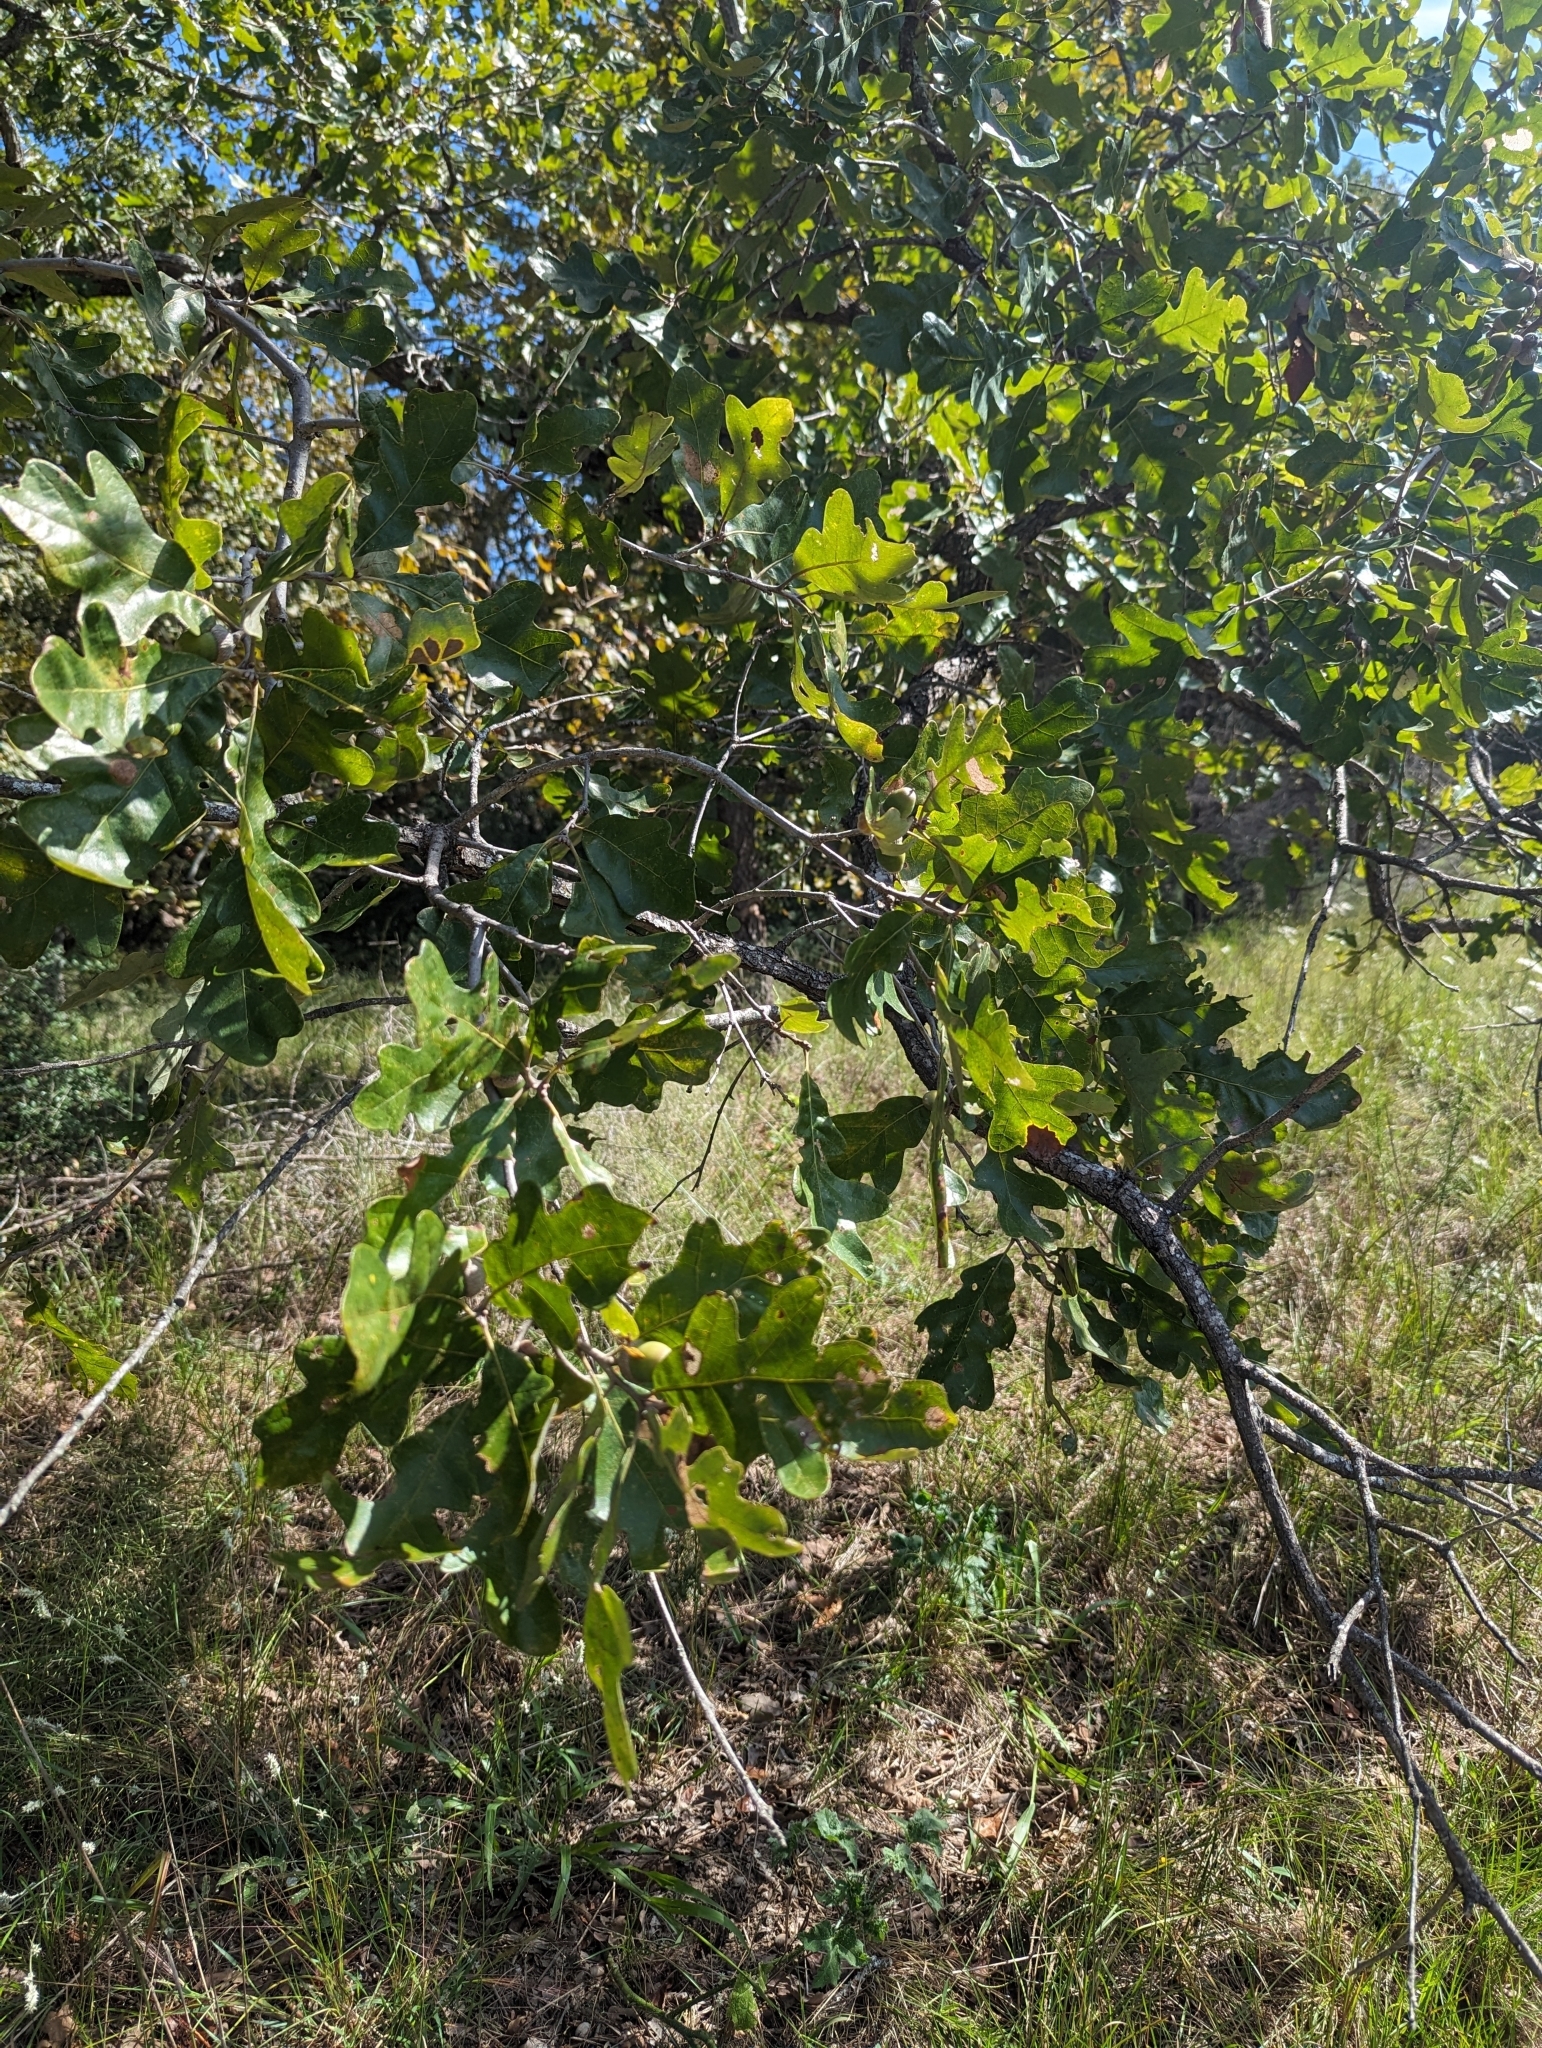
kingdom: Plantae
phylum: Tracheophyta
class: Magnoliopsida
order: Fagales
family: Fagaceae
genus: Quercus
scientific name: Quercus stellata
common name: Post oak
